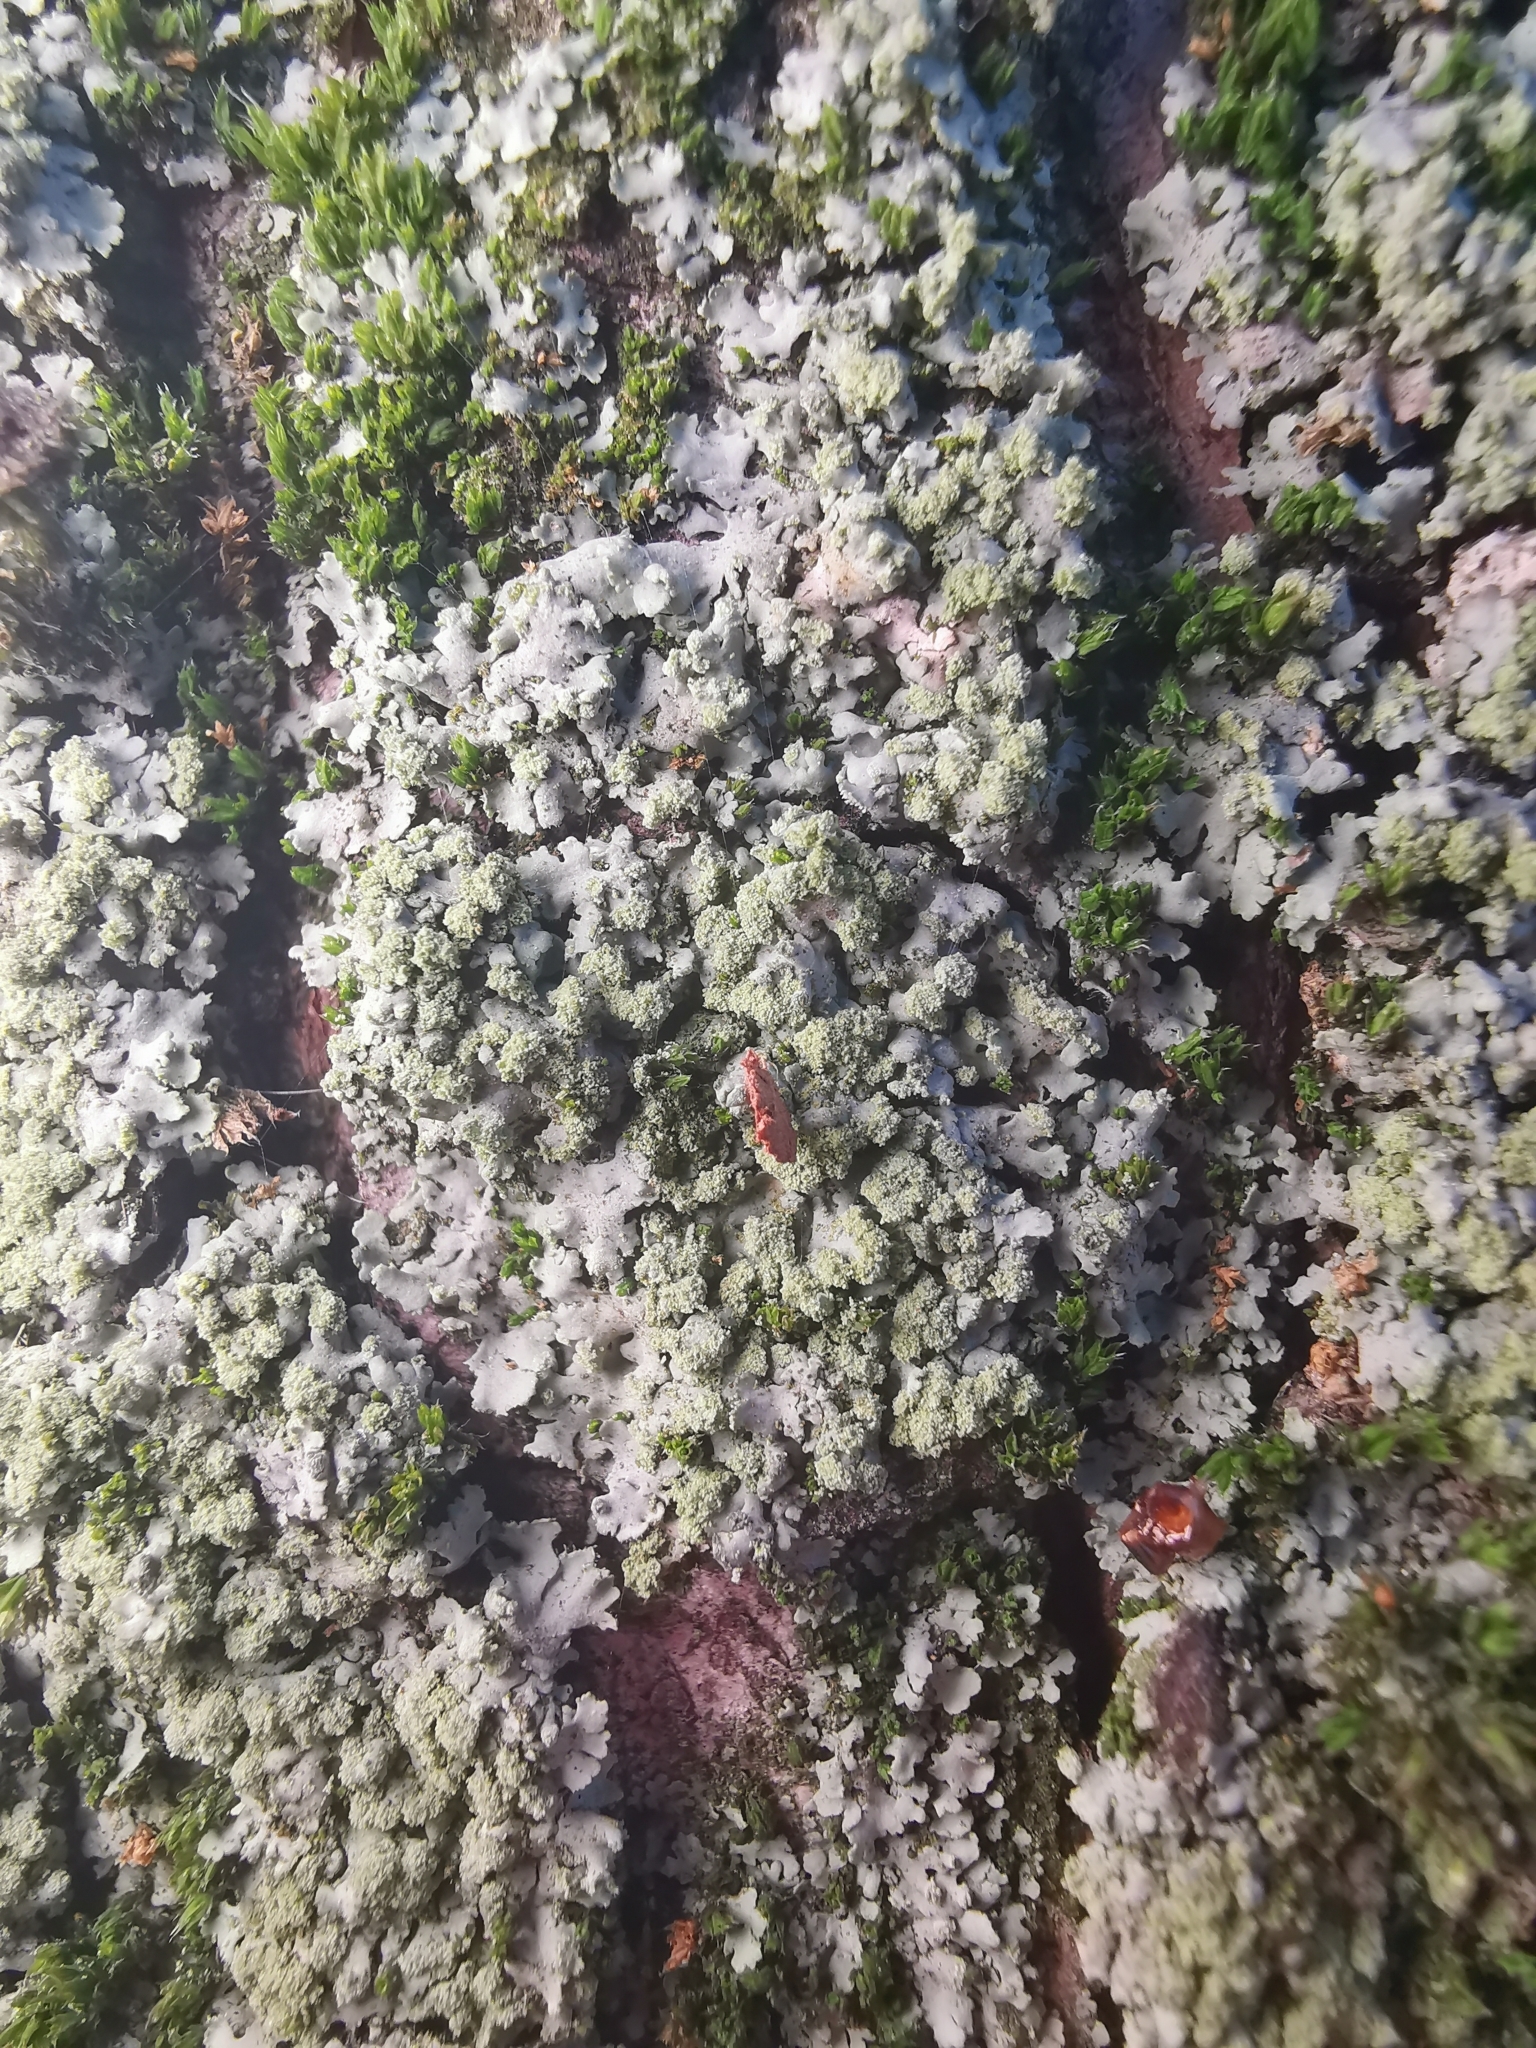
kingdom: Fungi
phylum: Ascomycota
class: Lecanoromycetes
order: Caliciales
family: Physciaceae
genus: Phaeophyscia
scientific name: Phaeophyscia orbicularis
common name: Mealy shadow lichen
